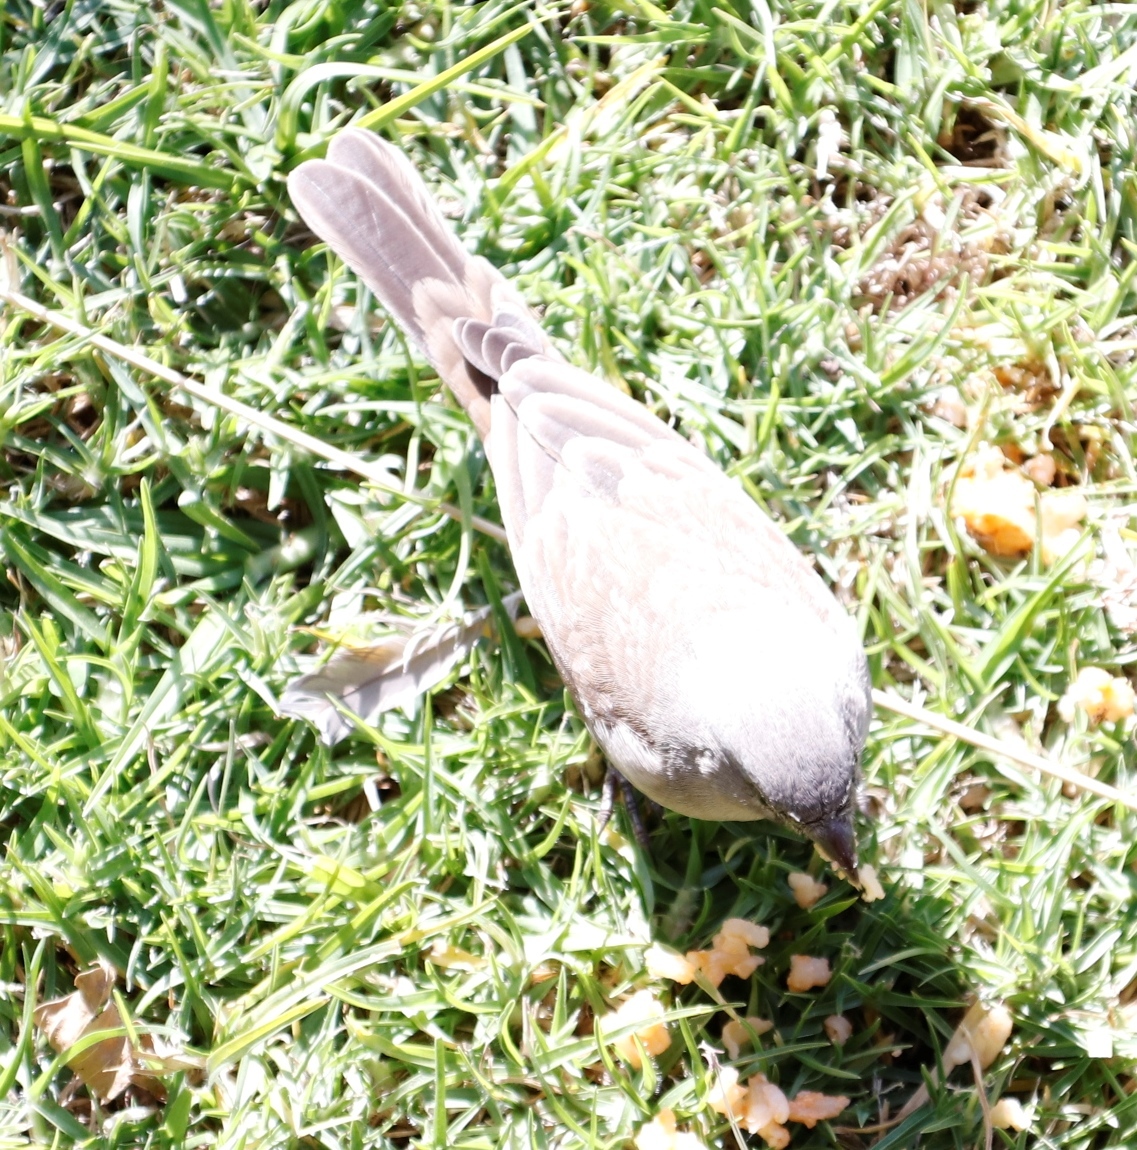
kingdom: Animalia
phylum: Chordata
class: Aves
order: Passeriformes
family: Passeridae
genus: Passer
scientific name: Passer diffusus
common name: Southern grey-headed sparrow
